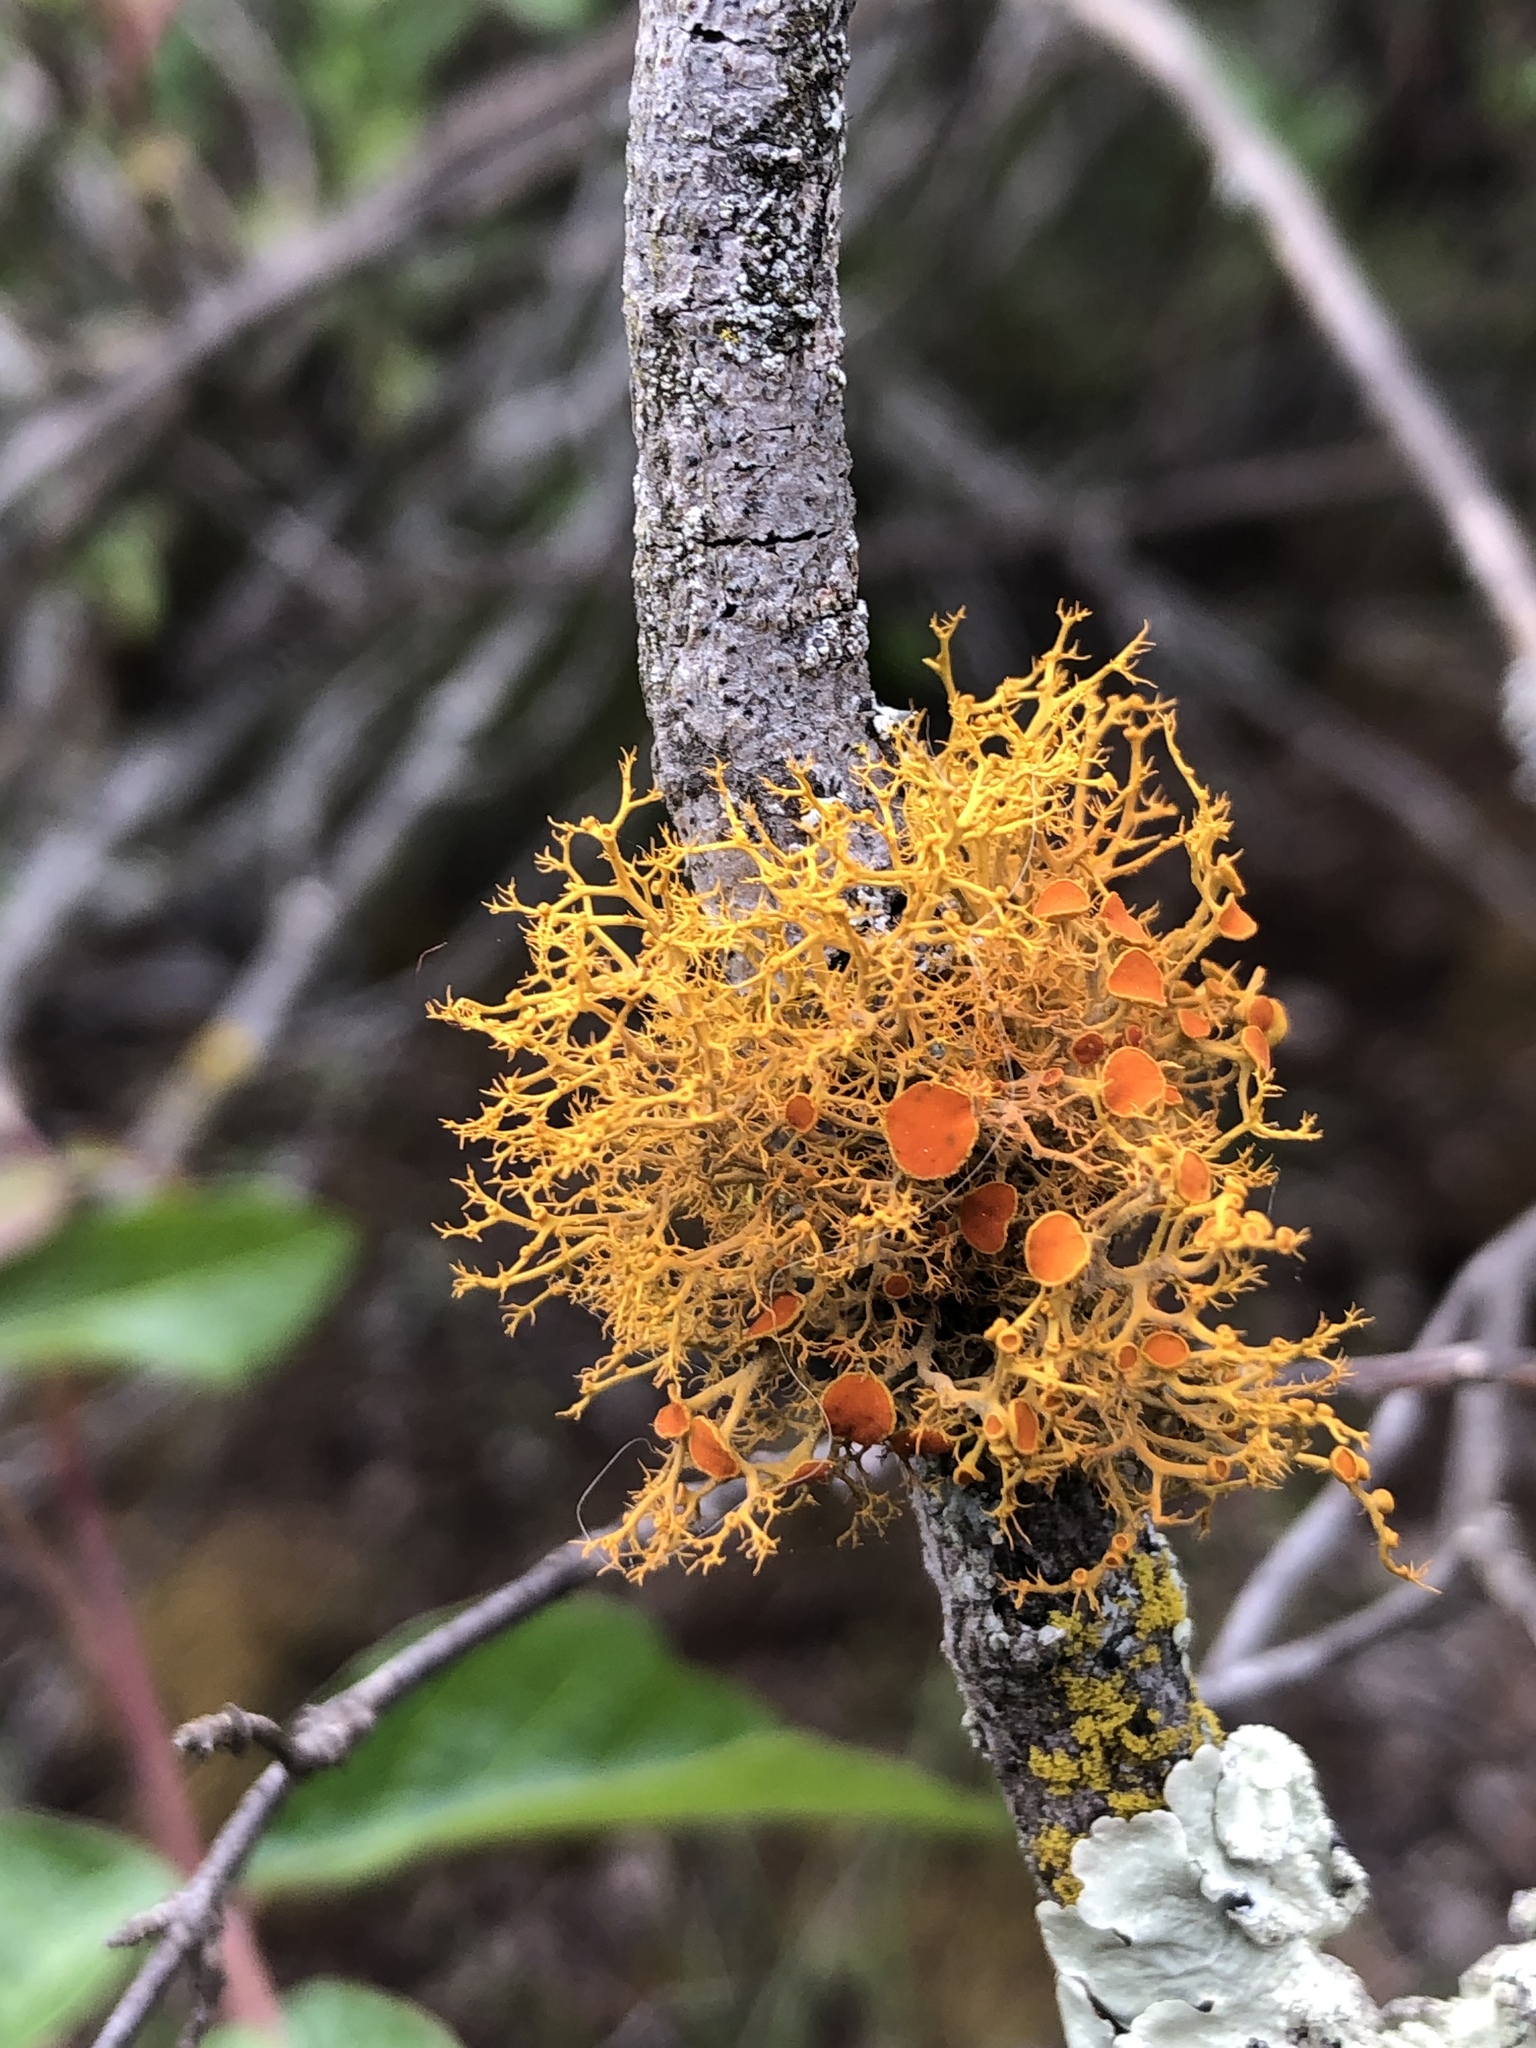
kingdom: Fungi
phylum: Ascomycota
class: Lecanoromycetes
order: Teloschistales
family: Teloschistaceae
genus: Teloschistes
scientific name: Teloschistes flavicans
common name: Golden hair-lichen
